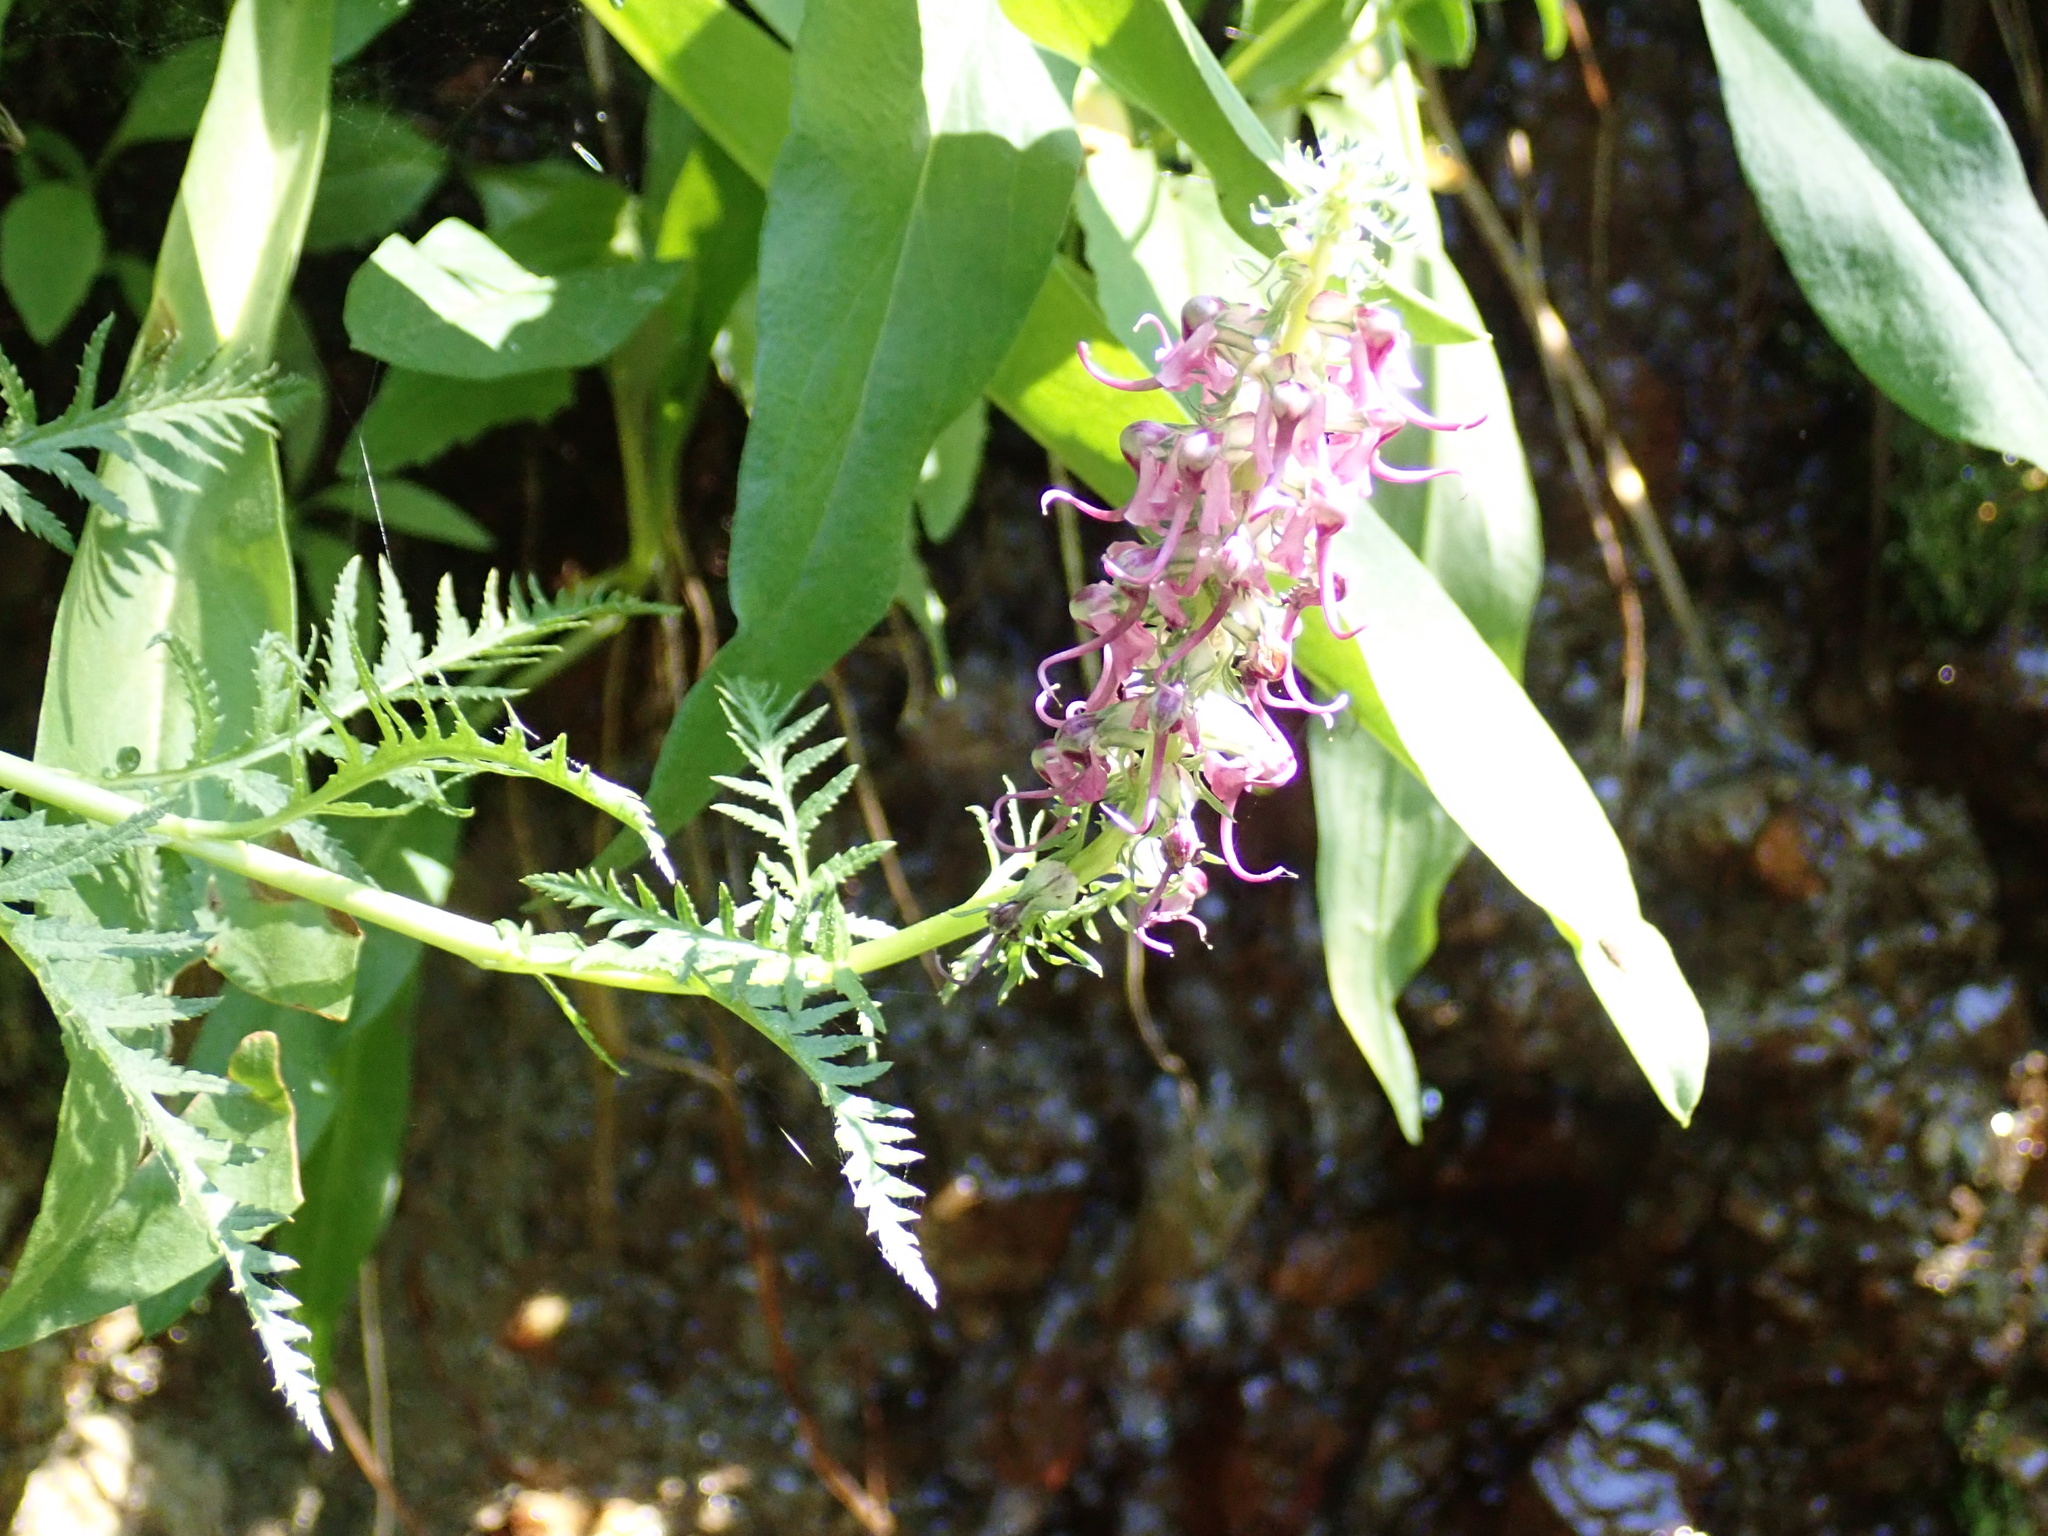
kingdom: Plantae
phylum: Tracheophyta
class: Magnoliopsida
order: Lamiales
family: Orobanchaceae
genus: Pedicularis
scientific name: Pedicularis groenlandica
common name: Elephant's-head
